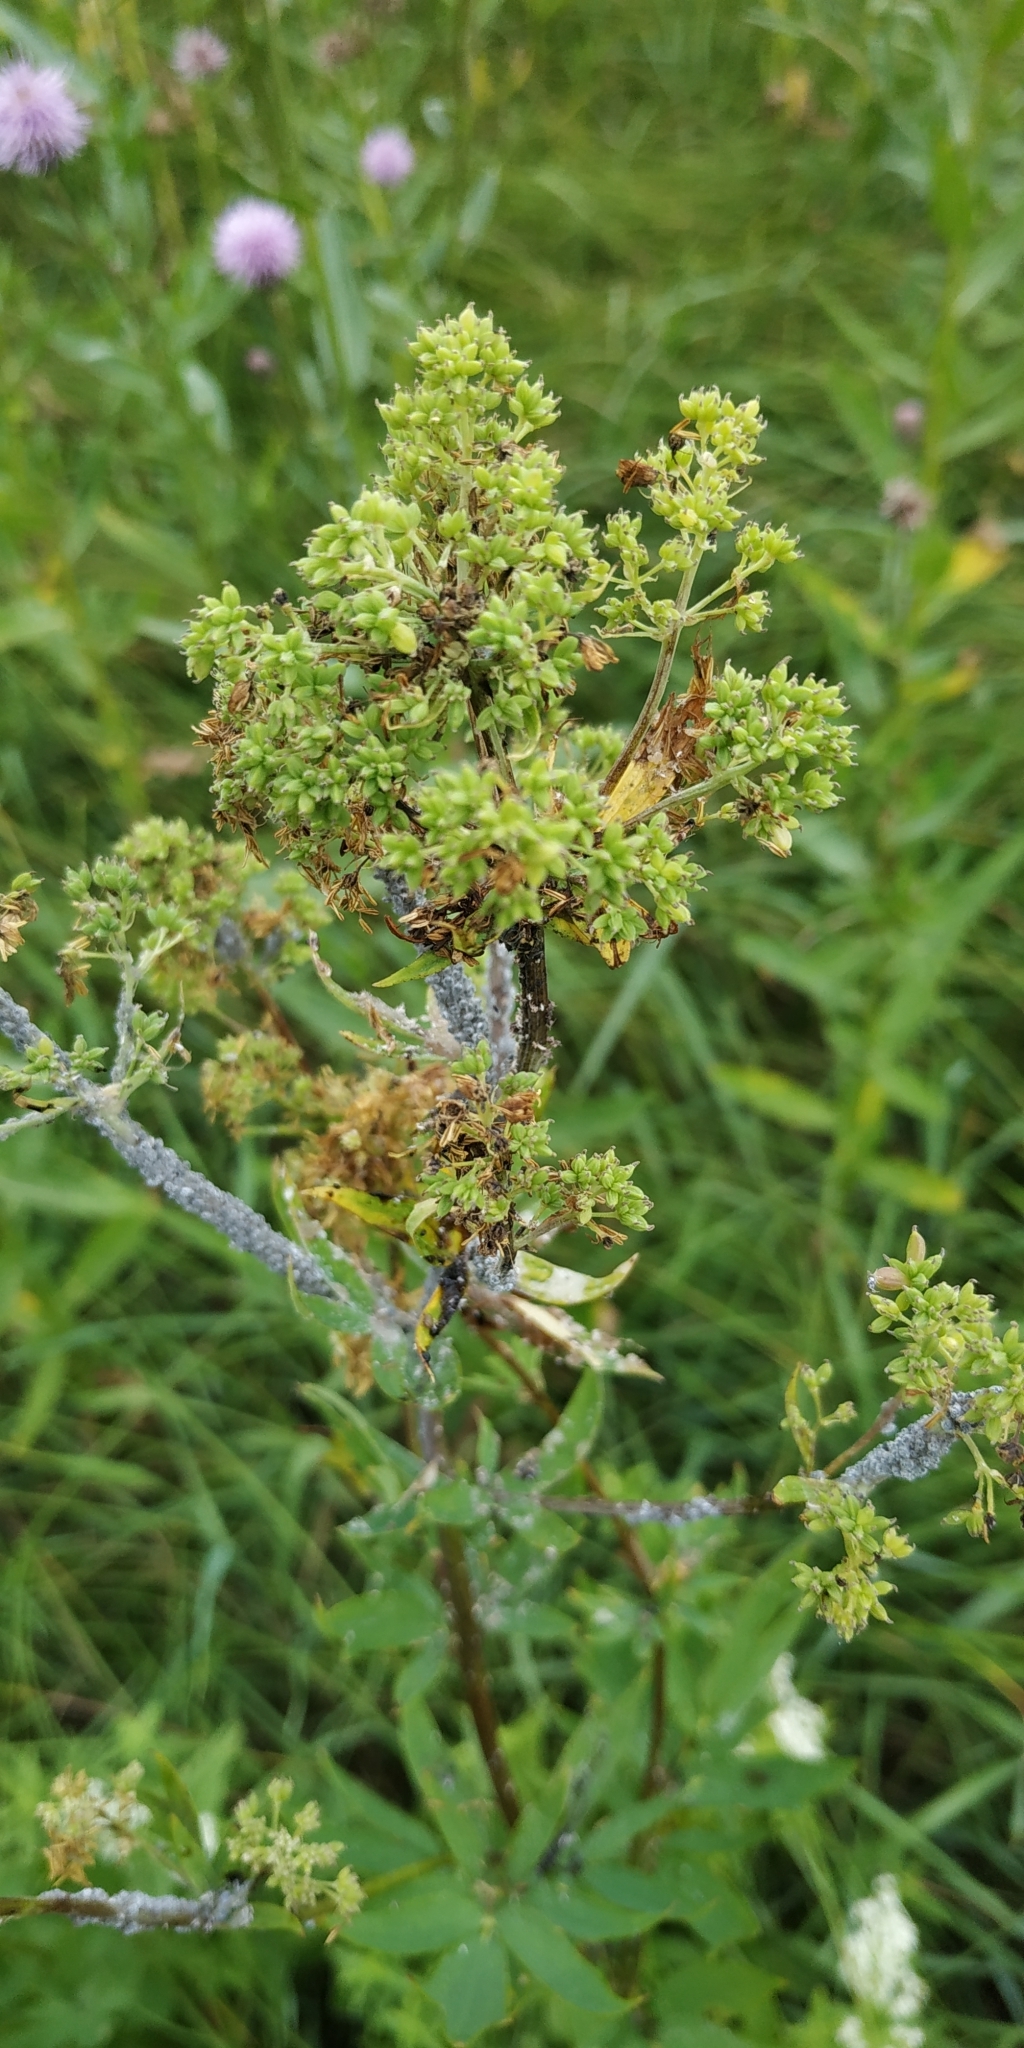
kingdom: Plantae
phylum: Tracheophyta
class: Magnoliopsida
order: Ranunculales
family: Ranunculaceae
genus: Thalictrum
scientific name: Thalictrum flavum
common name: Common meadow-rue
